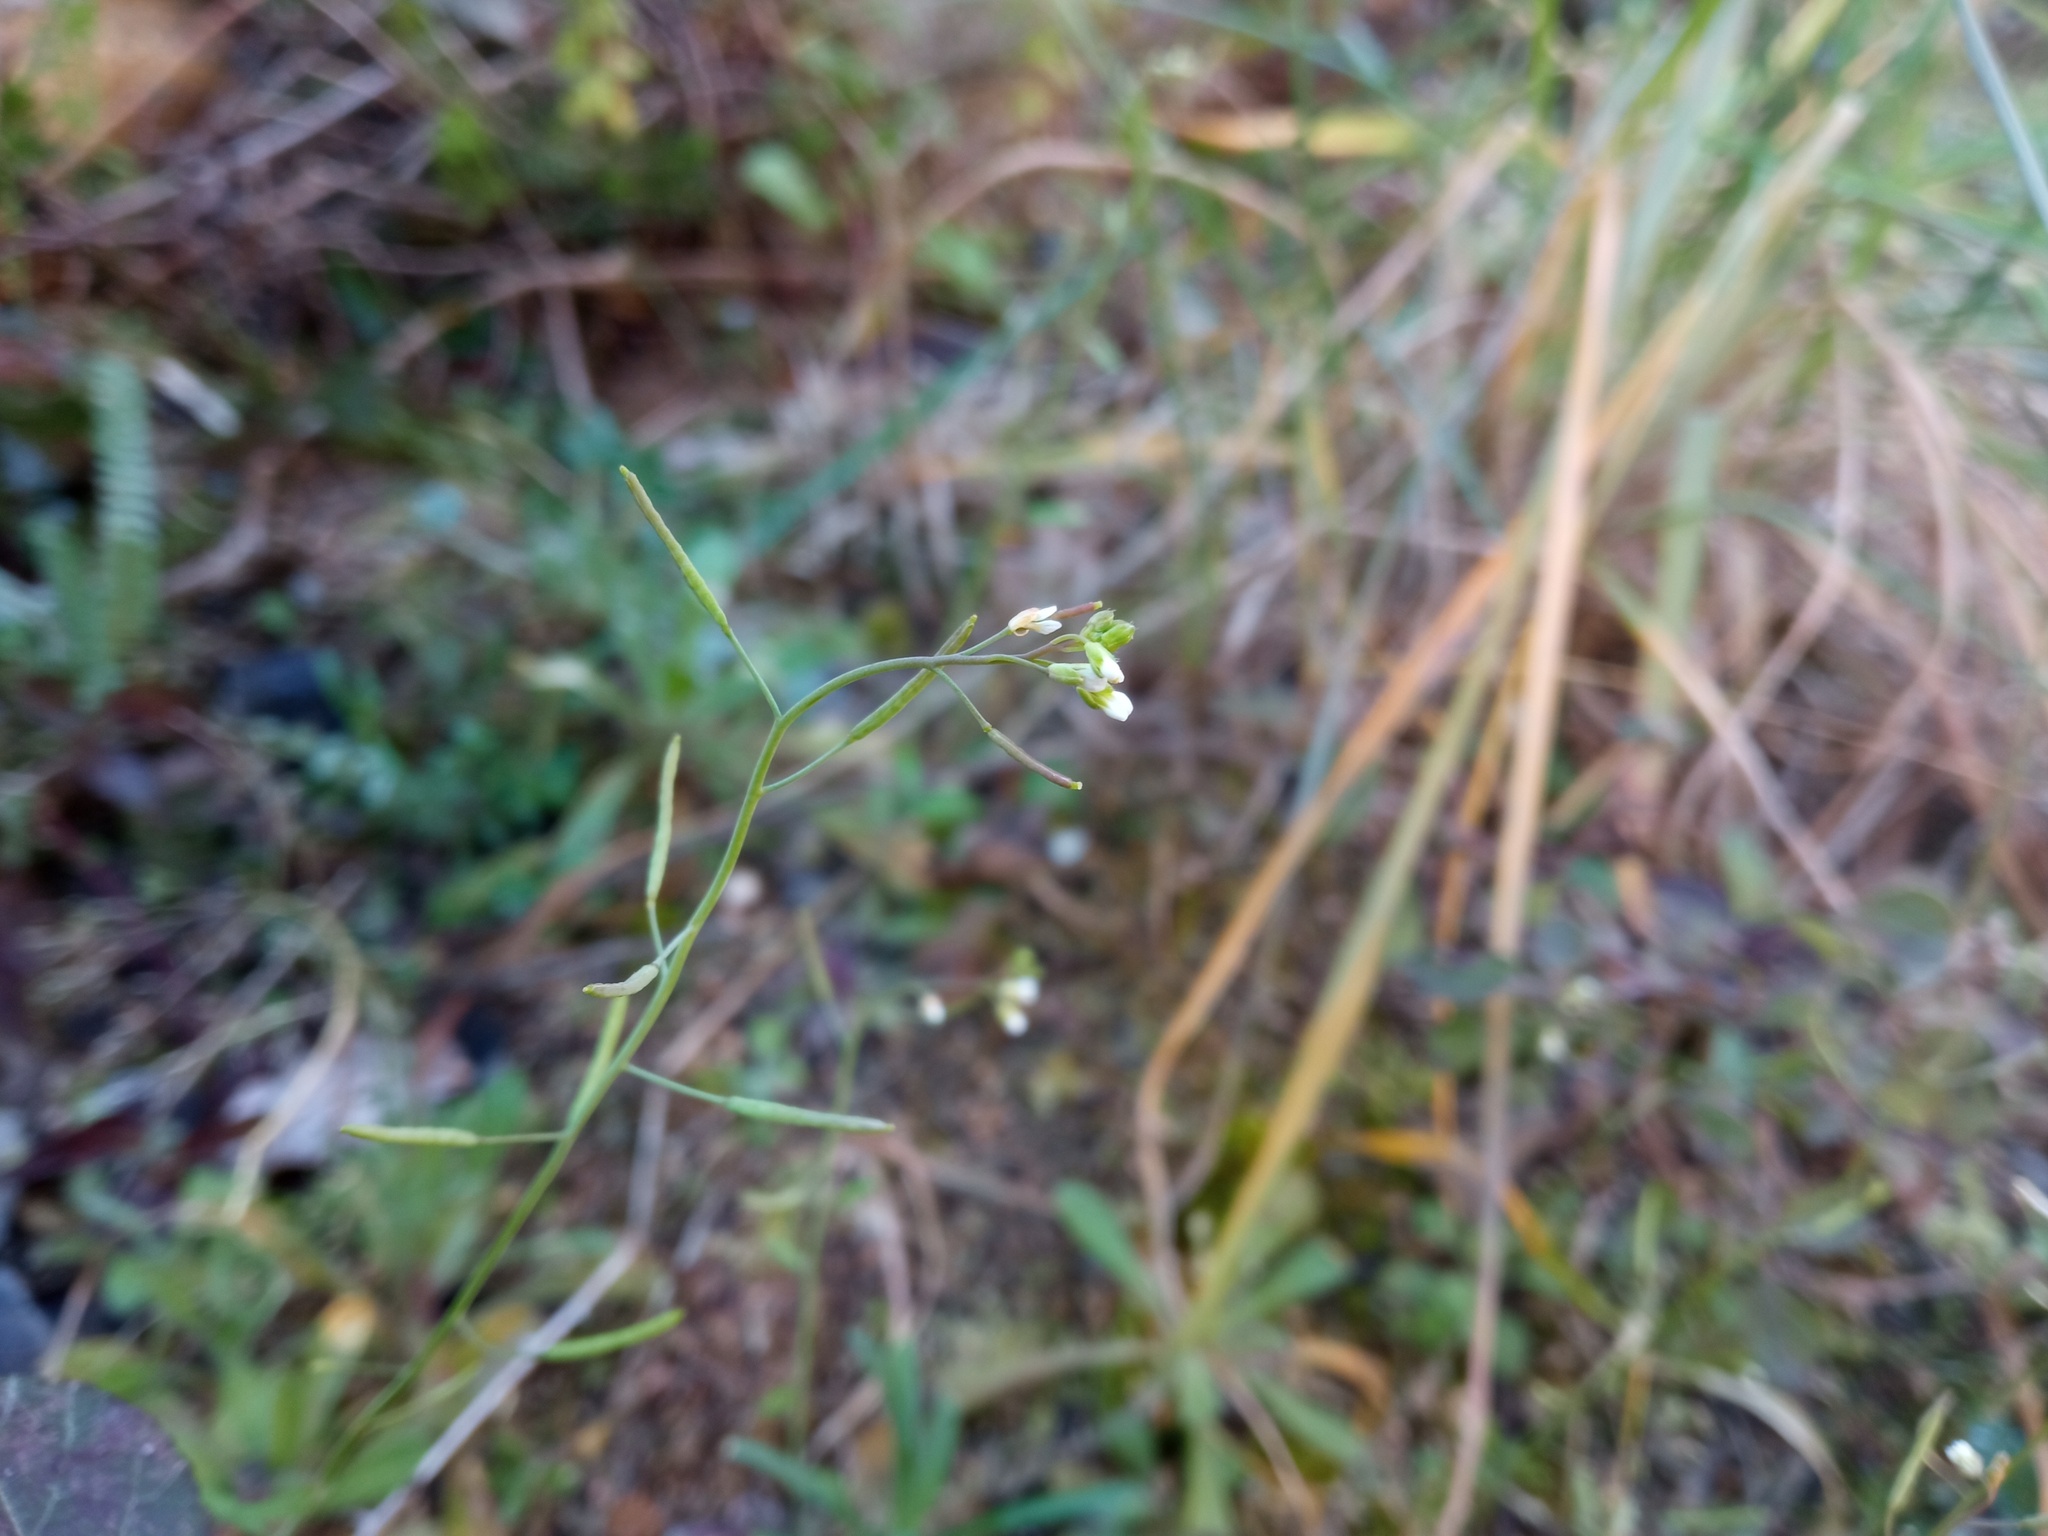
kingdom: Plantae
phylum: Tracheophyta
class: Magnoliopsida
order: Brassicales
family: Brassicaceae
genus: Arabidopsis
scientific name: Arabidopsis thaliana
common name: Thale cress
